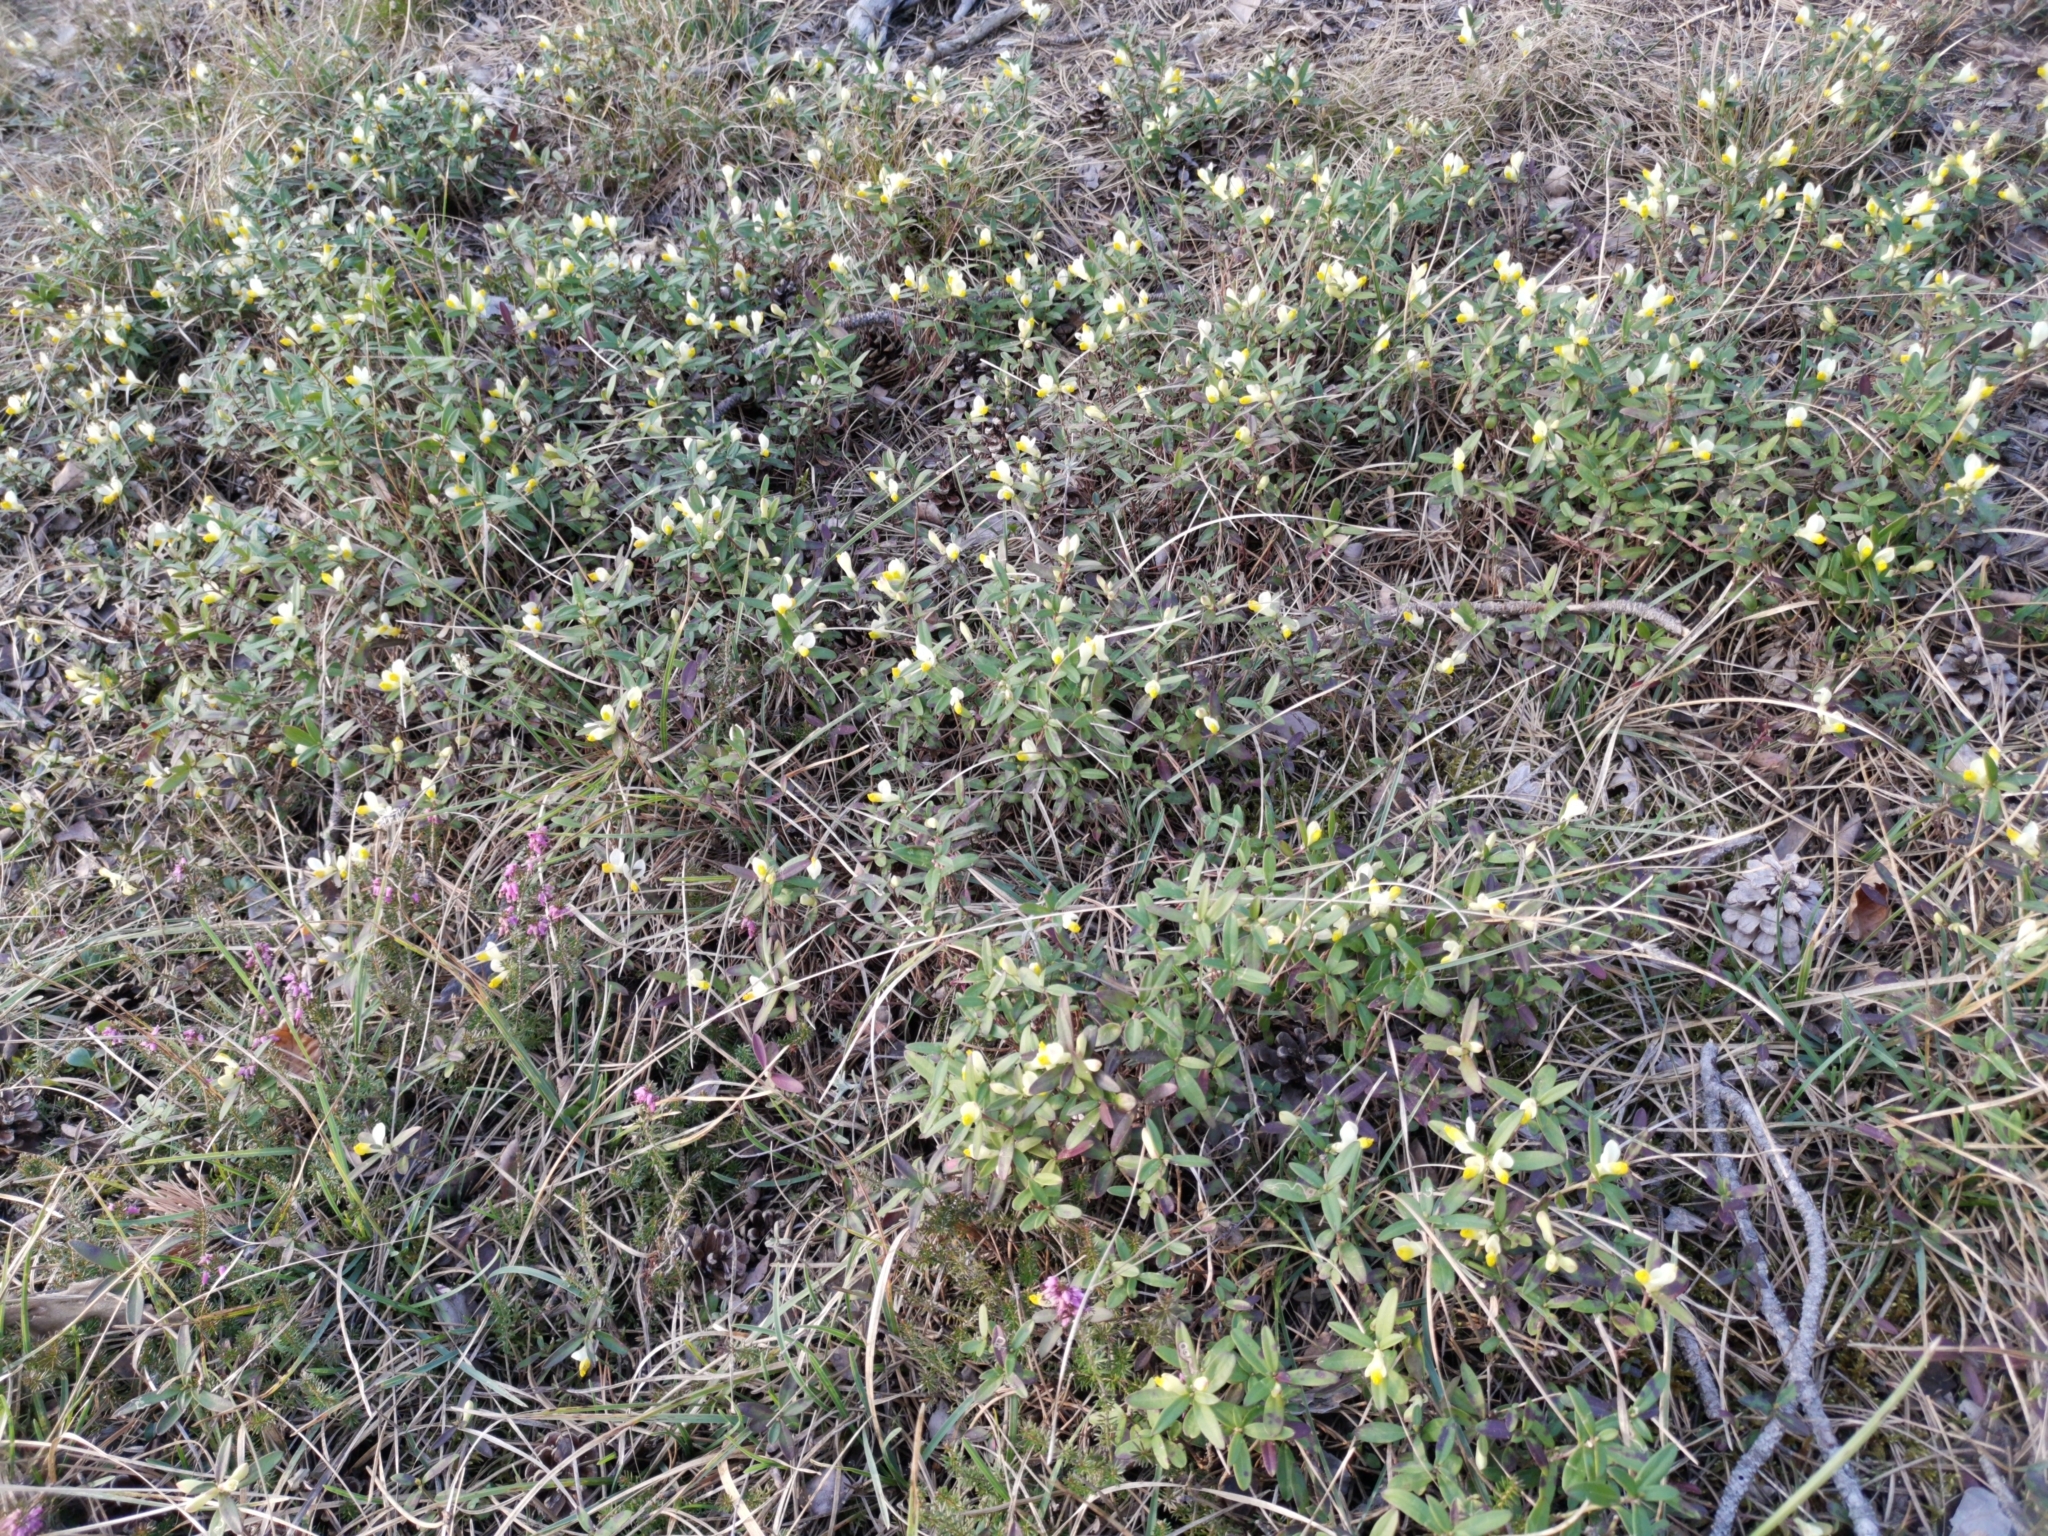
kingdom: Plantae
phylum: Tracheophyta
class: Magnoliopsida
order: Fabales
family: Polygalaceae
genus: Polygaloides
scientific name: Polygaloides chamaebuxus
